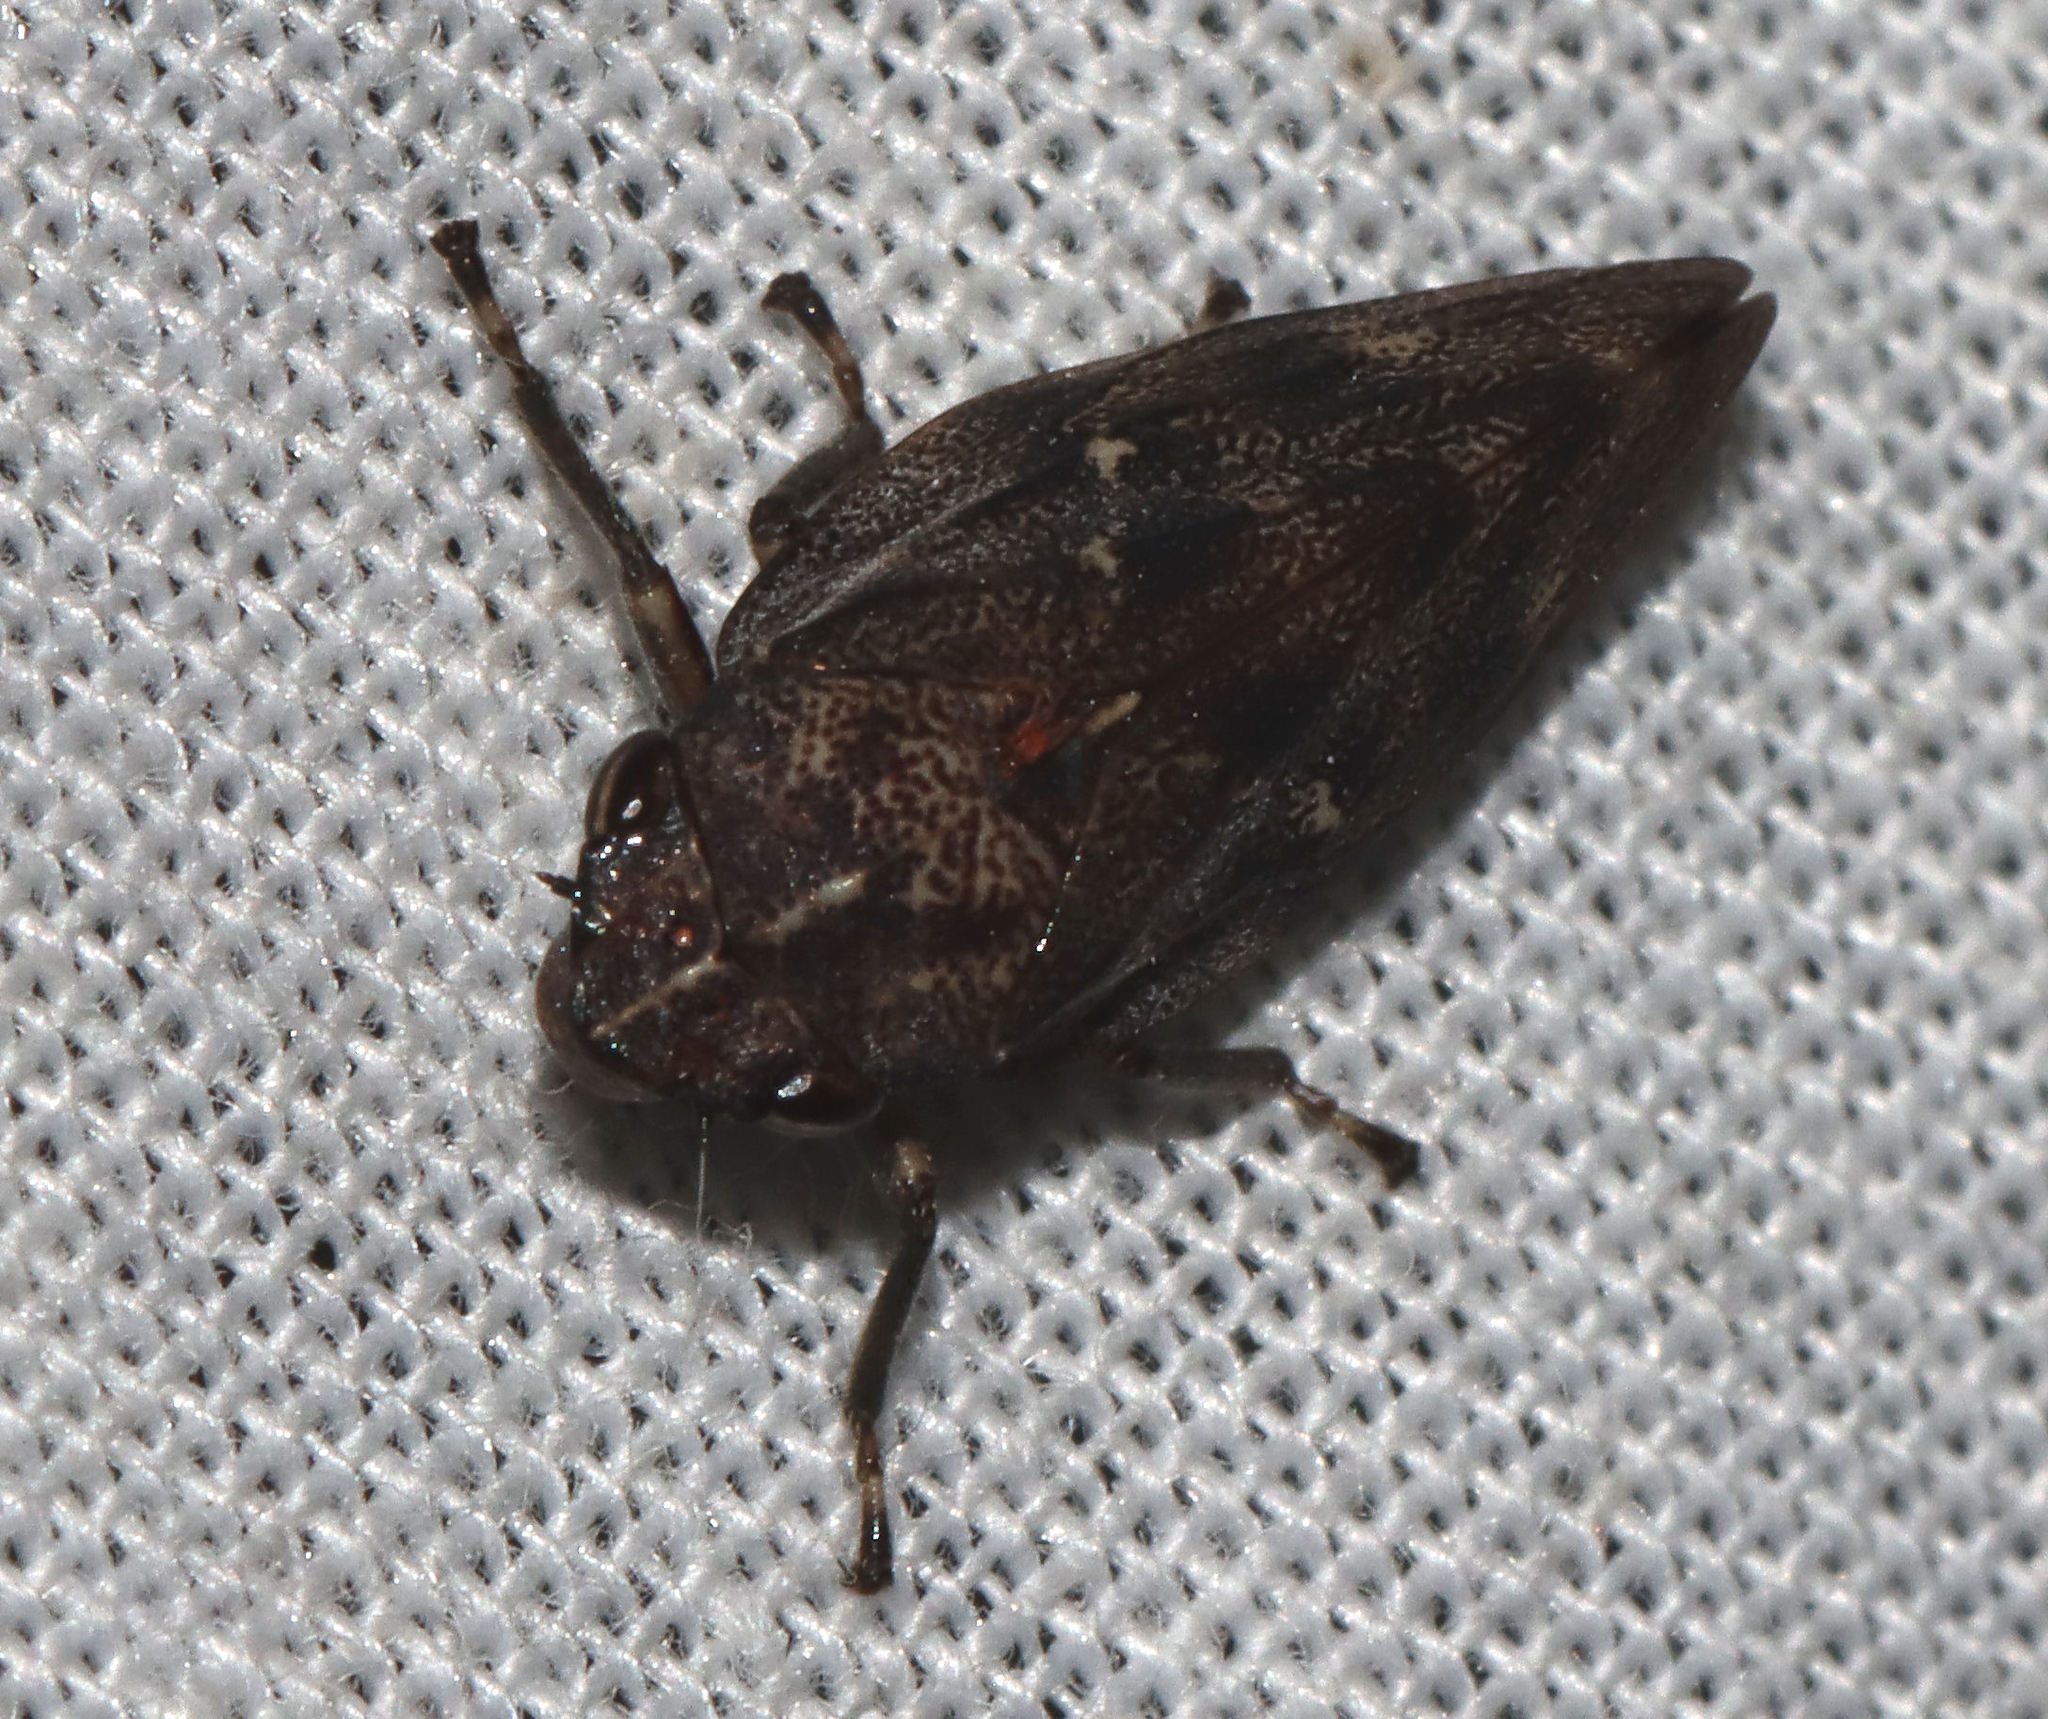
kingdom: Animalia
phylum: Arthropoda
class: Insecta
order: Hemiptera
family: Epipygidae
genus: Epipyga
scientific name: Epipyga cribrata
